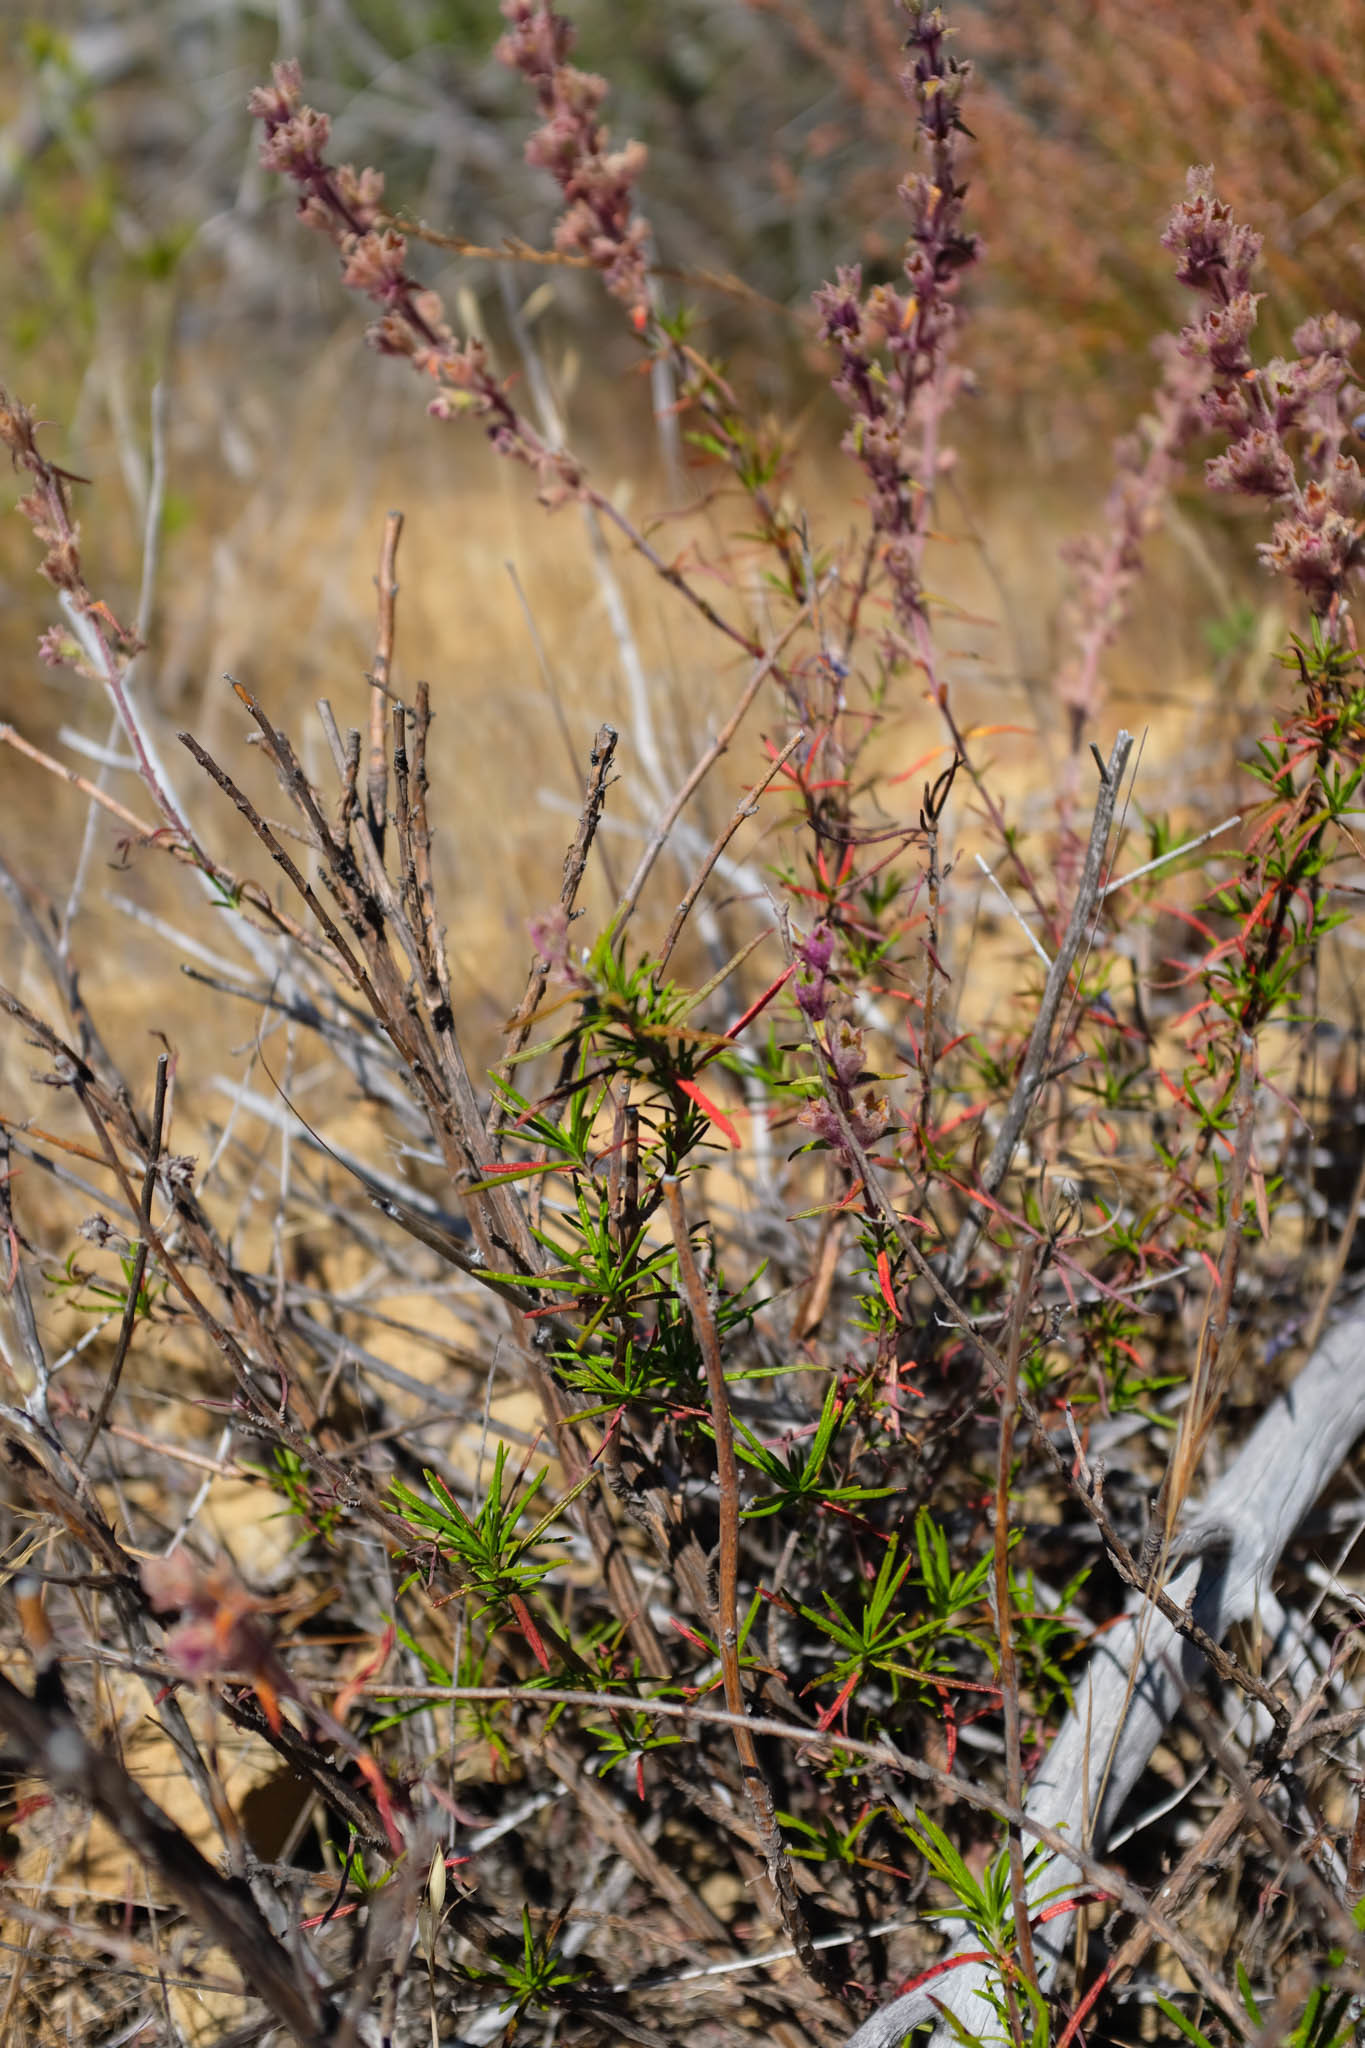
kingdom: Plantae
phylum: Tracheophyta
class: Magnoliopsida
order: Lamiales
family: Lamiaceae
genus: Trichostema
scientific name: Trichostema lanatum
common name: Woolly bluecurls
